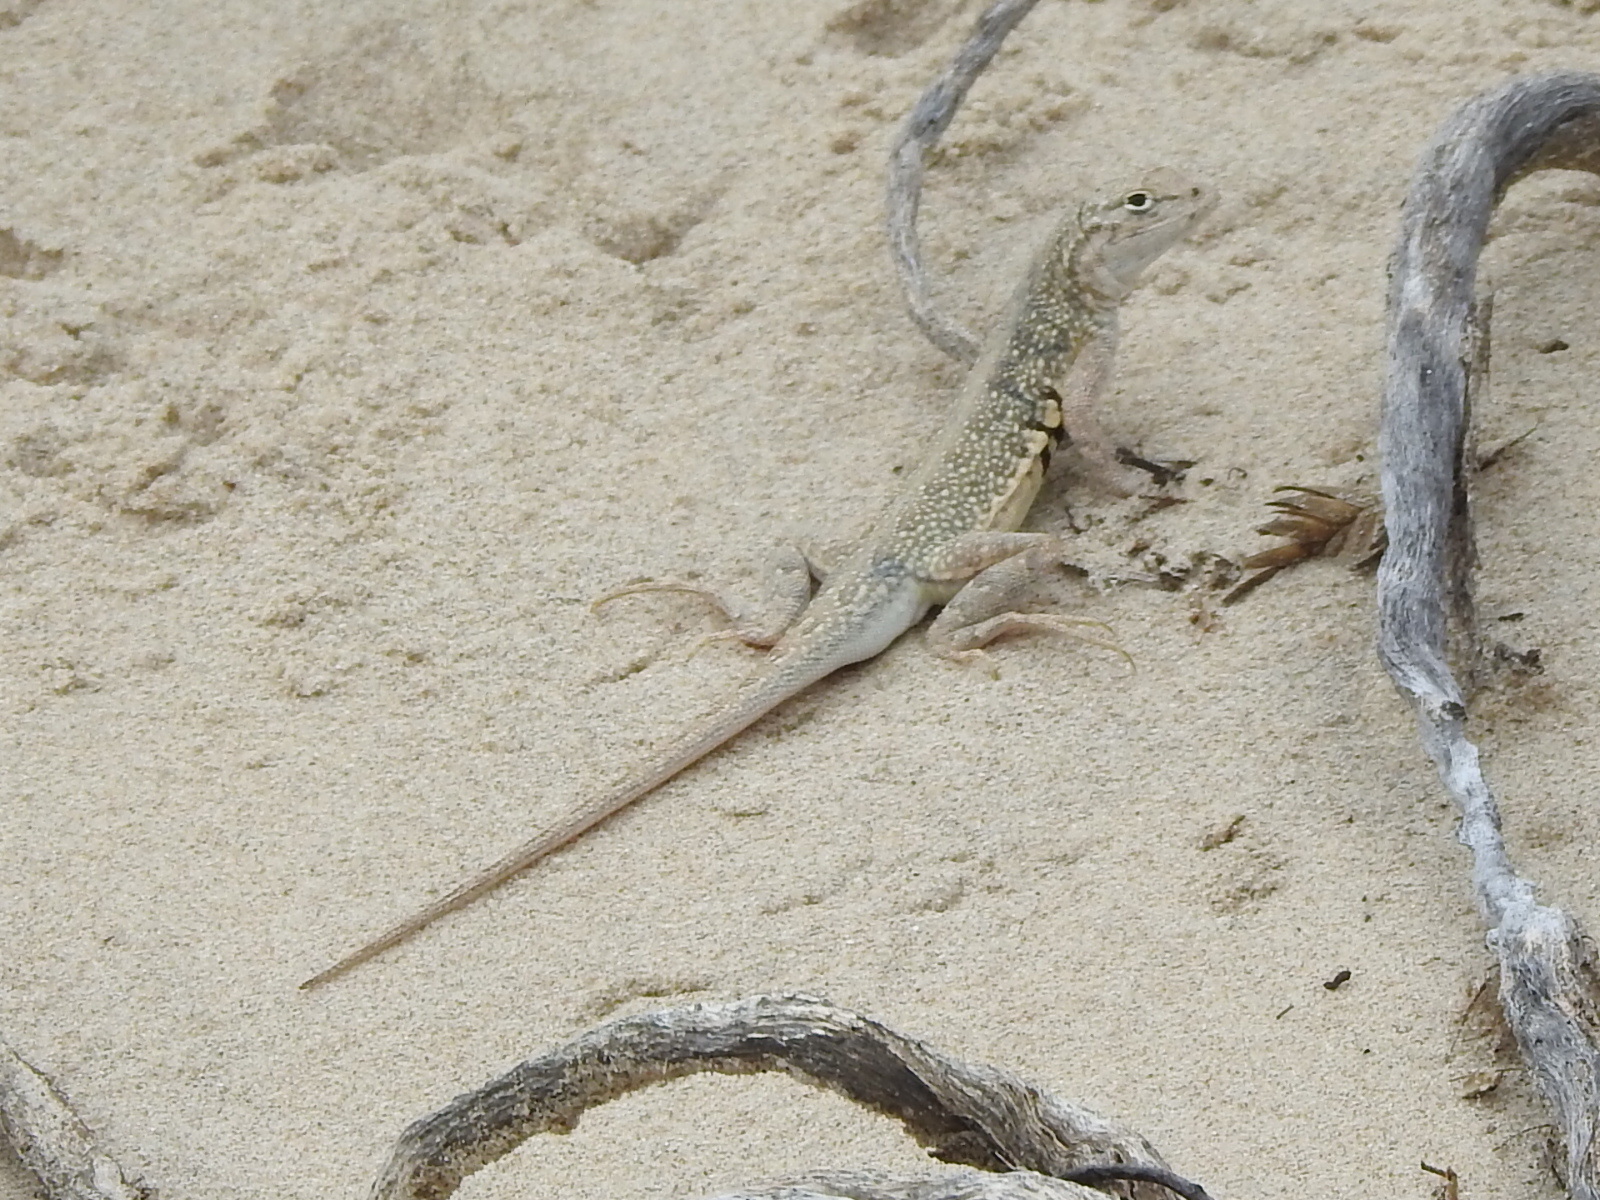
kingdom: Animalia
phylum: Chordata
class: Squamata
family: Phrynosomatidae
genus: Holbrookia
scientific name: Holbrookia propinqua
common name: Keeled earless lizard
